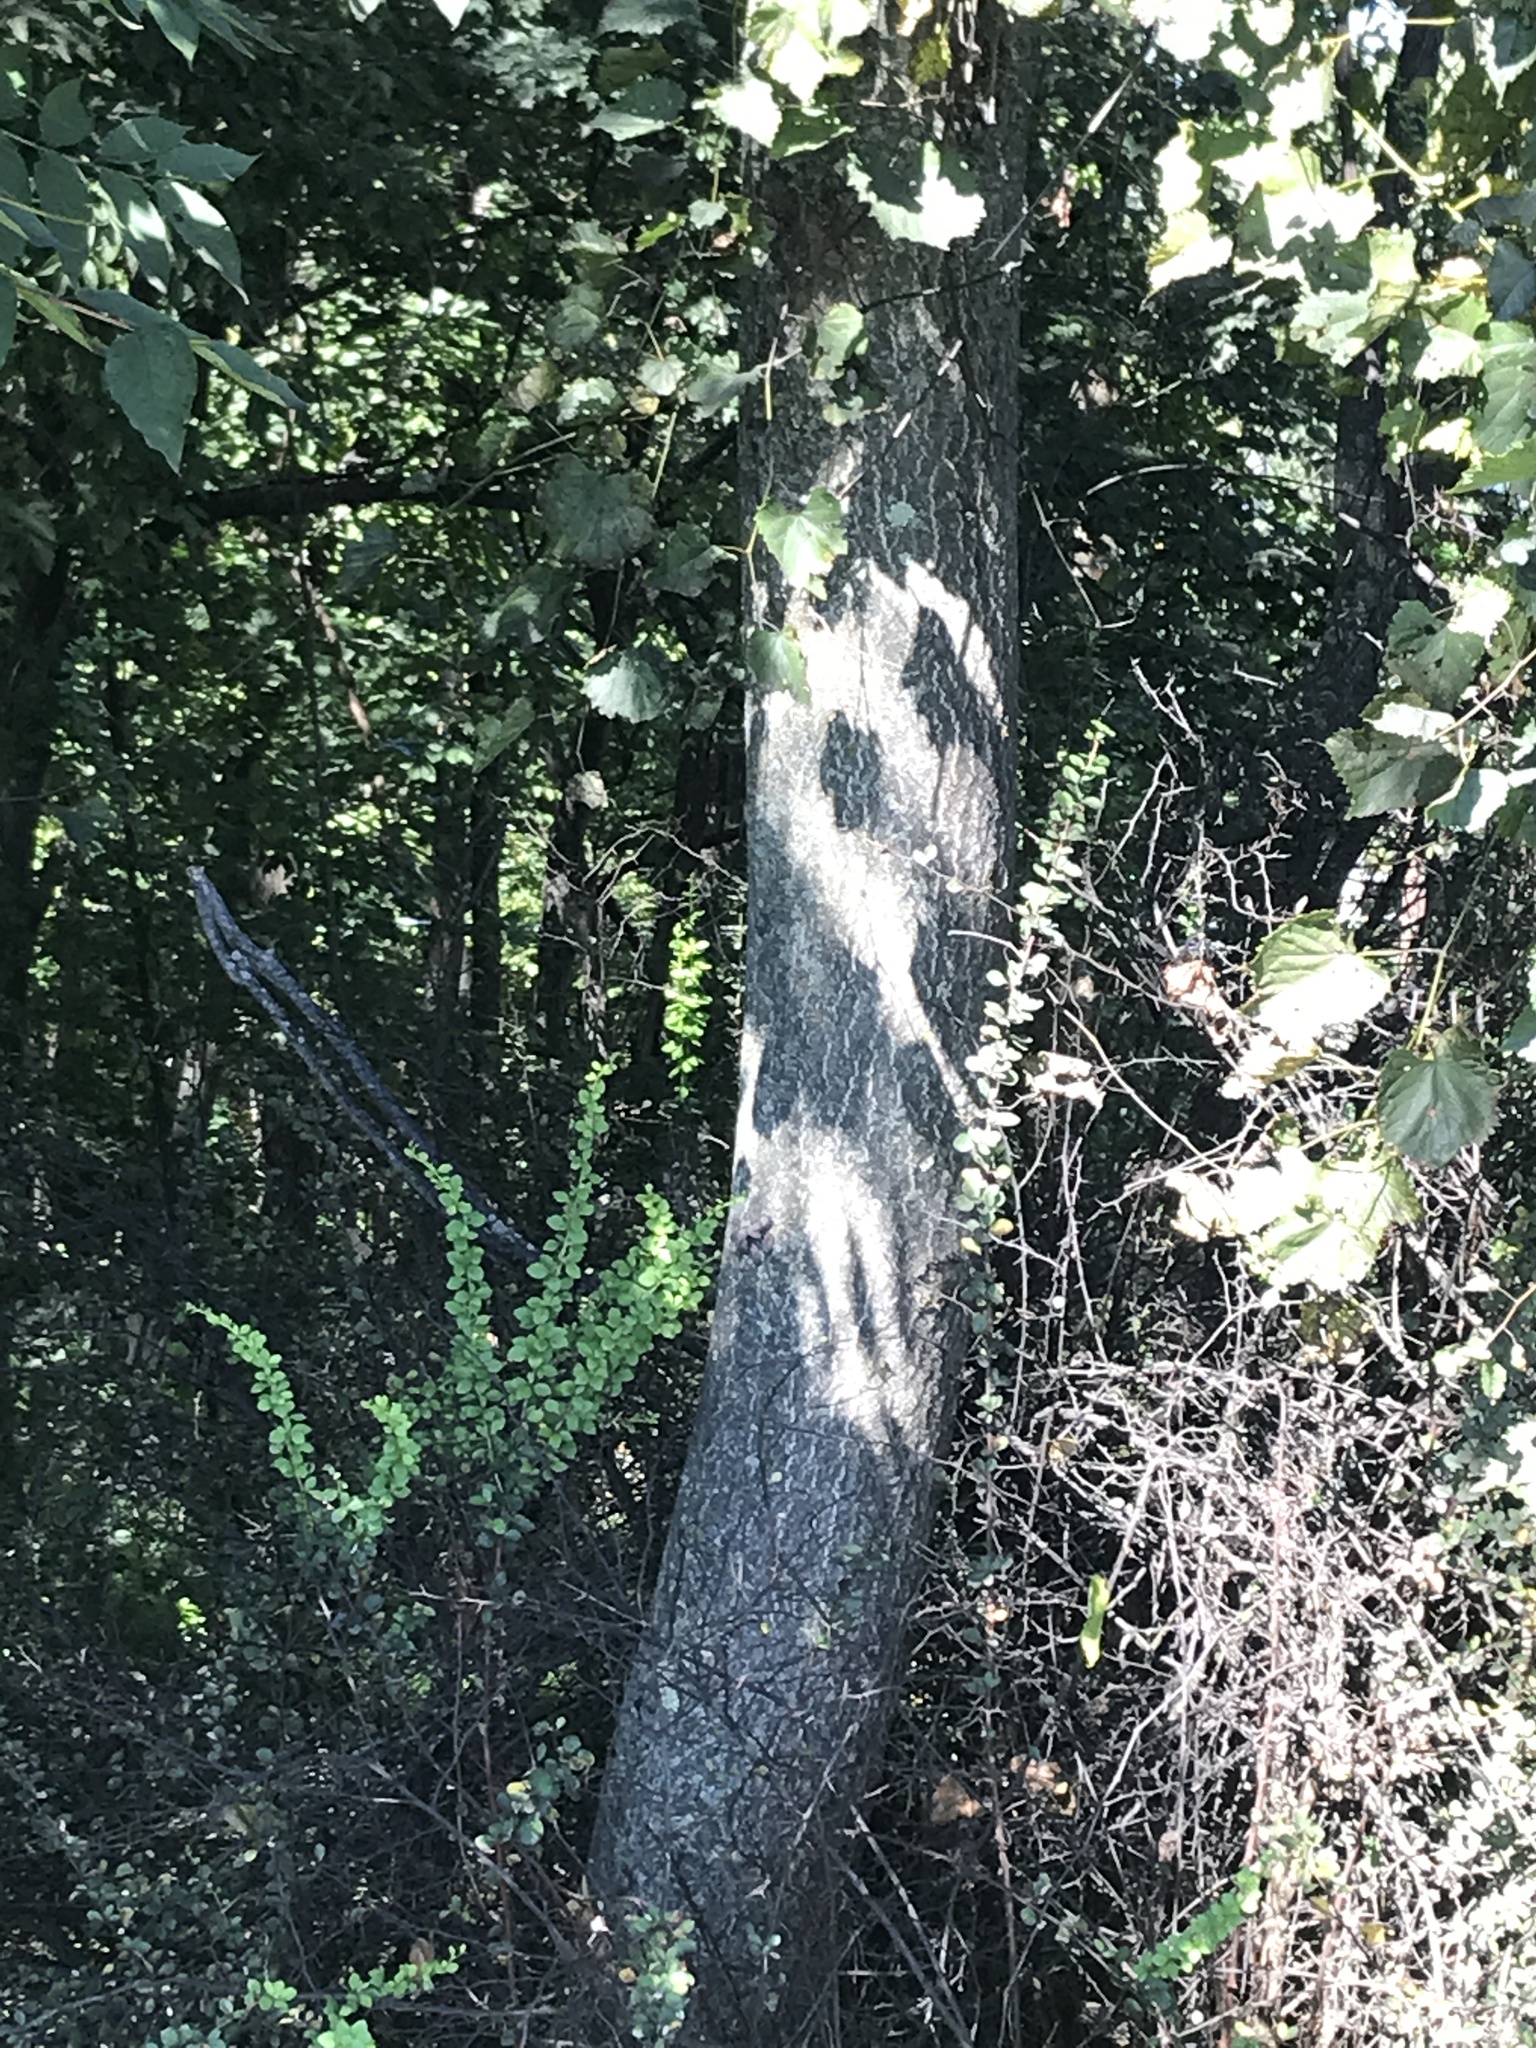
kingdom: Plantae
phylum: Tracheophyta
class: Magnoliopsida
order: Sapindales
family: Simaroubaceae
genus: Ailanthus
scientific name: Ailanthus altissima
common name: Tree-of-heaven
